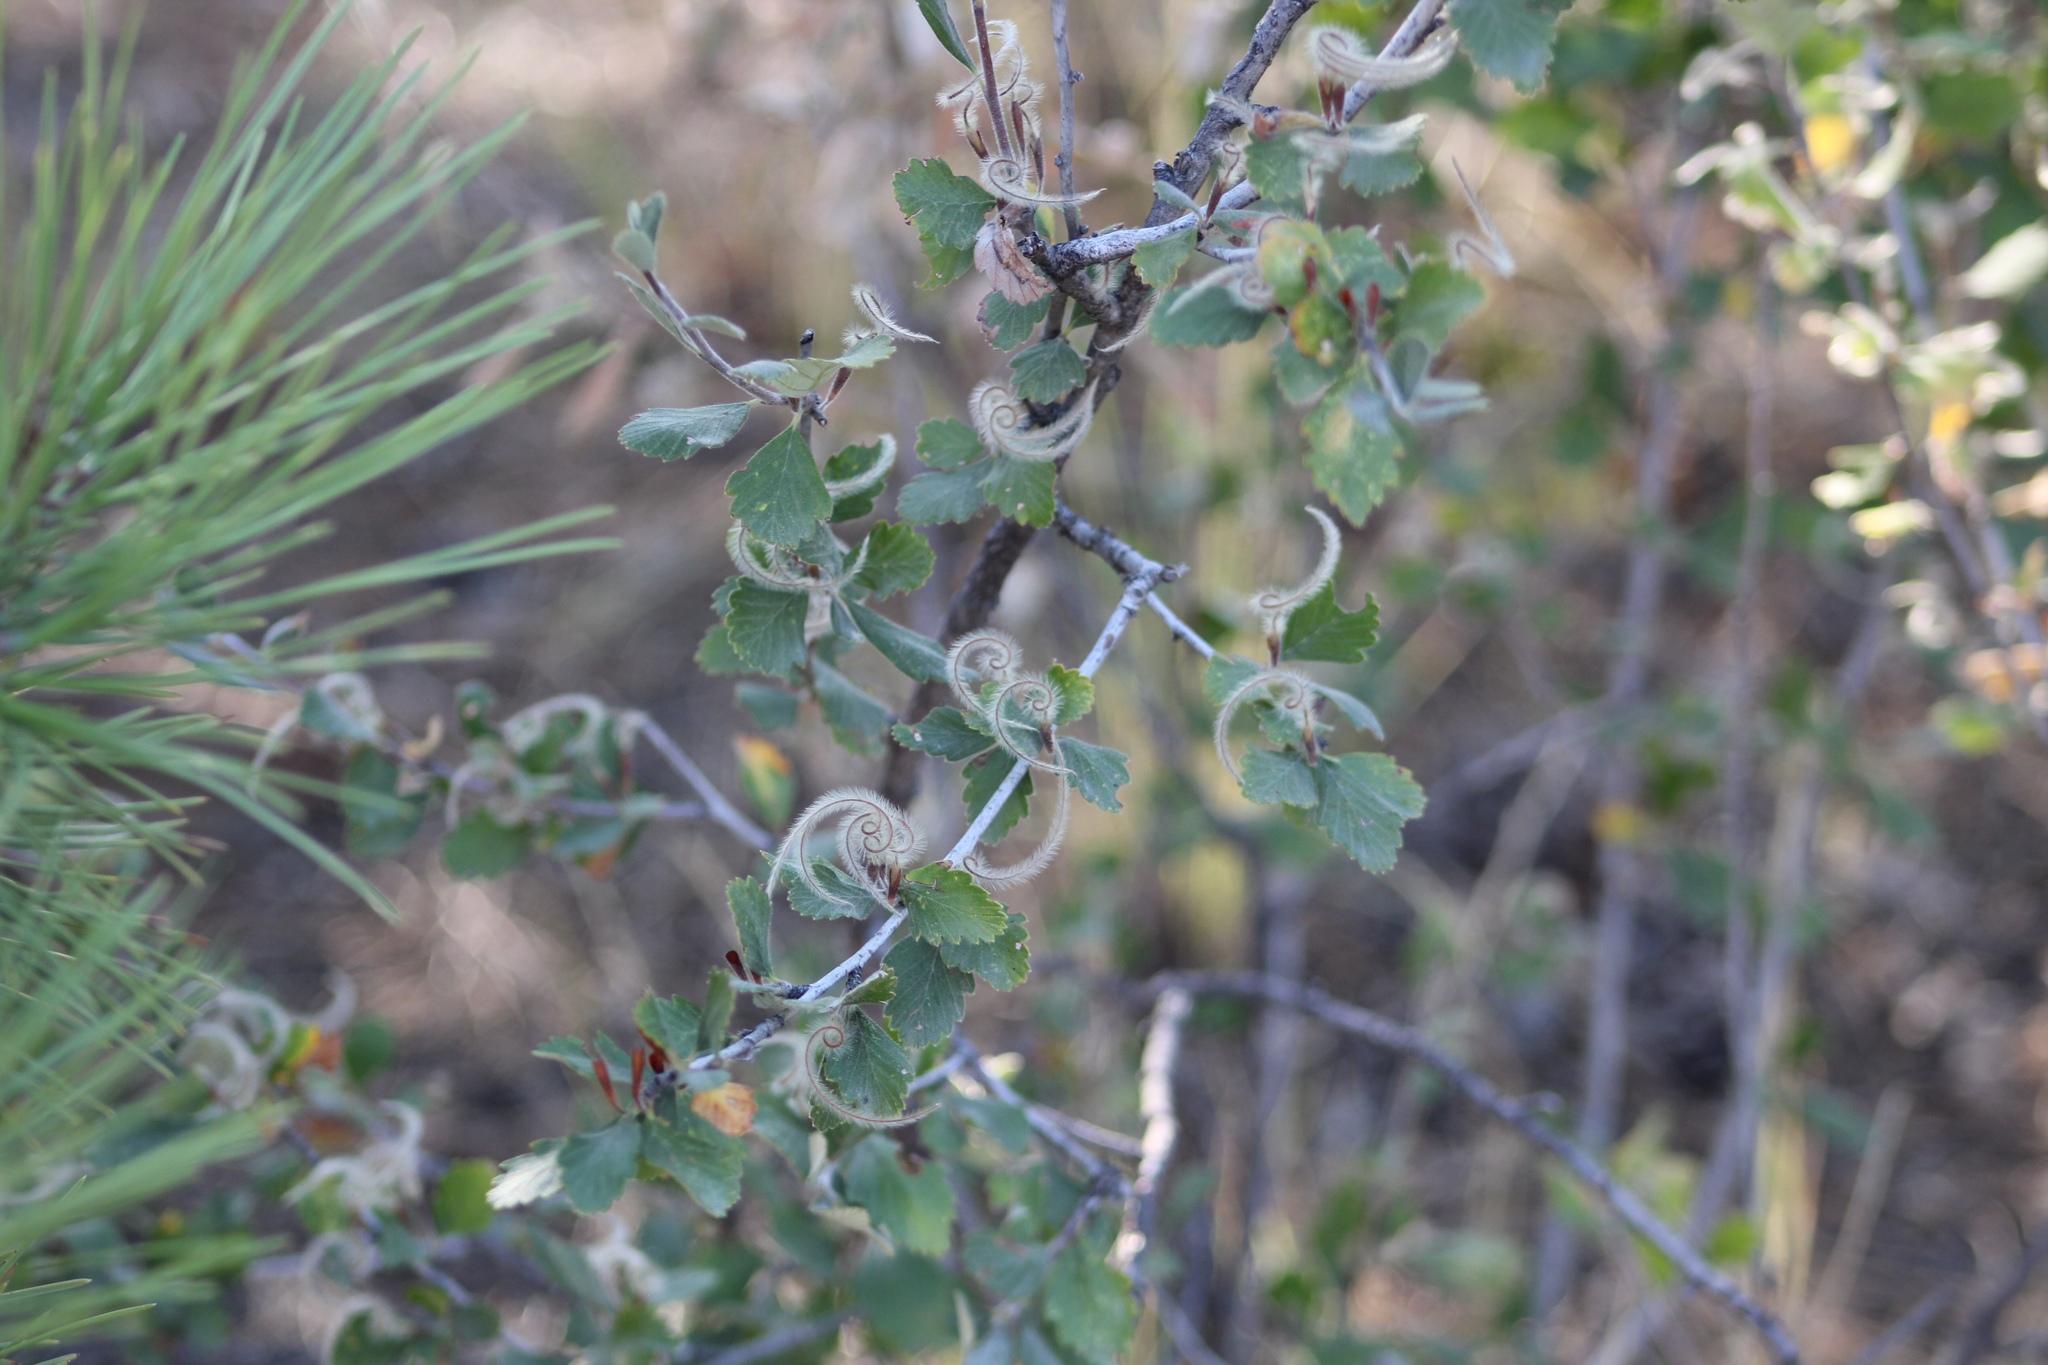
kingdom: Plantae
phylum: Tracheophyta
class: Magnoliopsida
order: Rosales
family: Rosaceae
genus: Cercocarpus
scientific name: Cercocarpus montanus
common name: Alder-leaf cercocarpus
